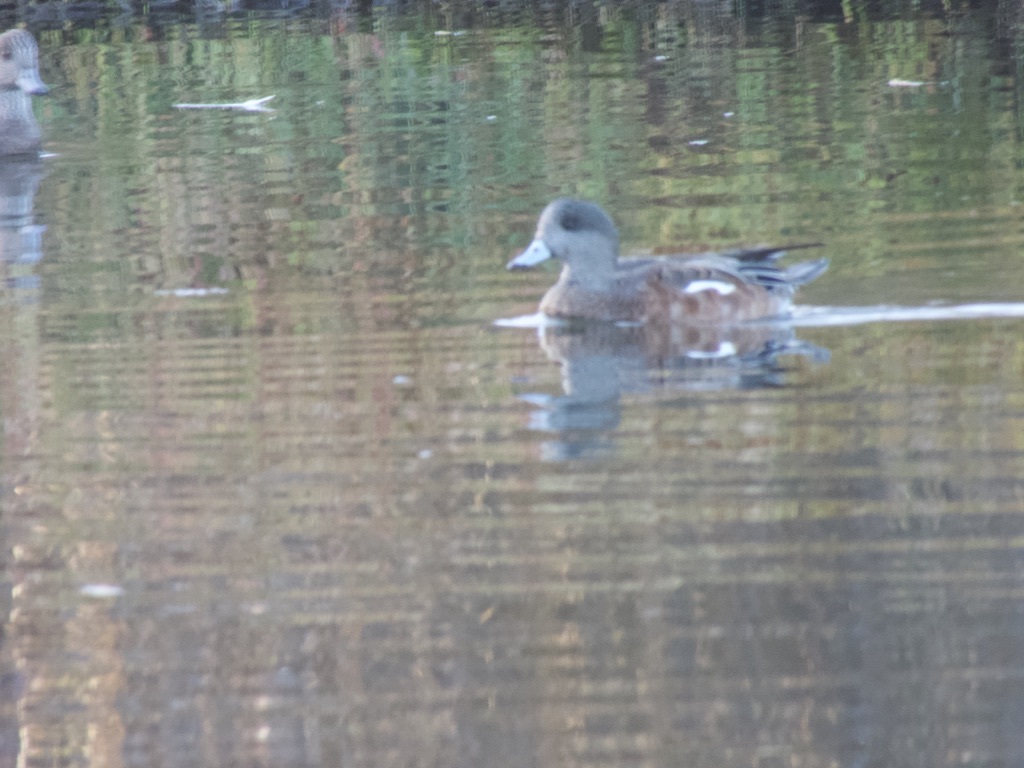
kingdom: Animalia
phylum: Chordata
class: Aves
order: Anseriformes
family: Anatidae
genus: Mareca
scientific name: Mareca americana
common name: American wigeon
